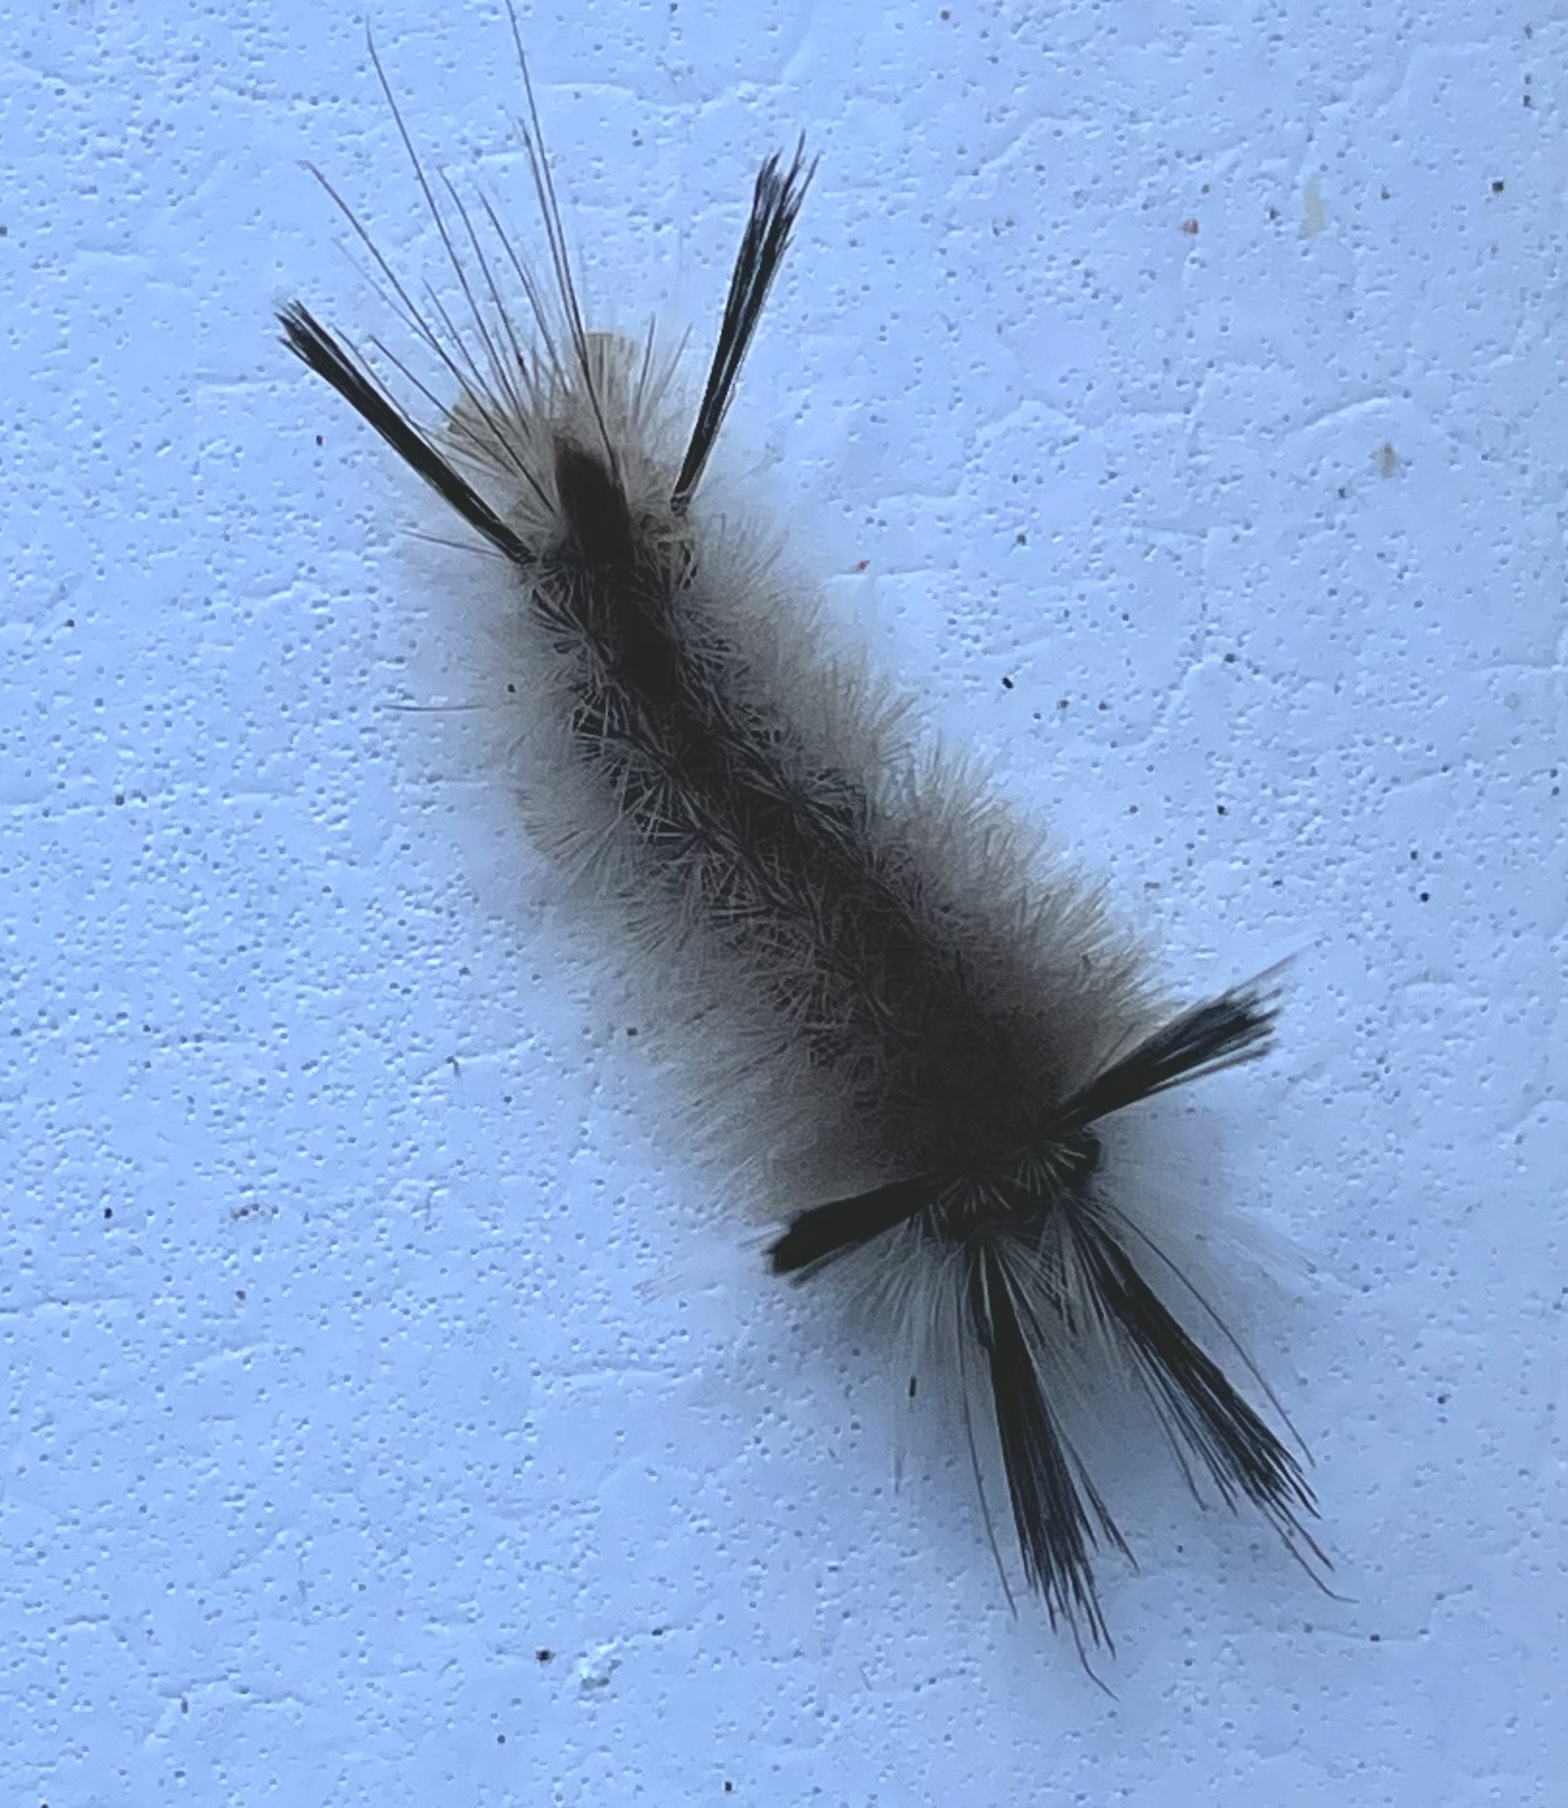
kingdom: Animalia
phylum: Arthropoda
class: Insecta
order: Lepidoptera
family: Erebidae
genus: Halysidota
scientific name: Halysidota tessellaris
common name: Banded tussock moth
